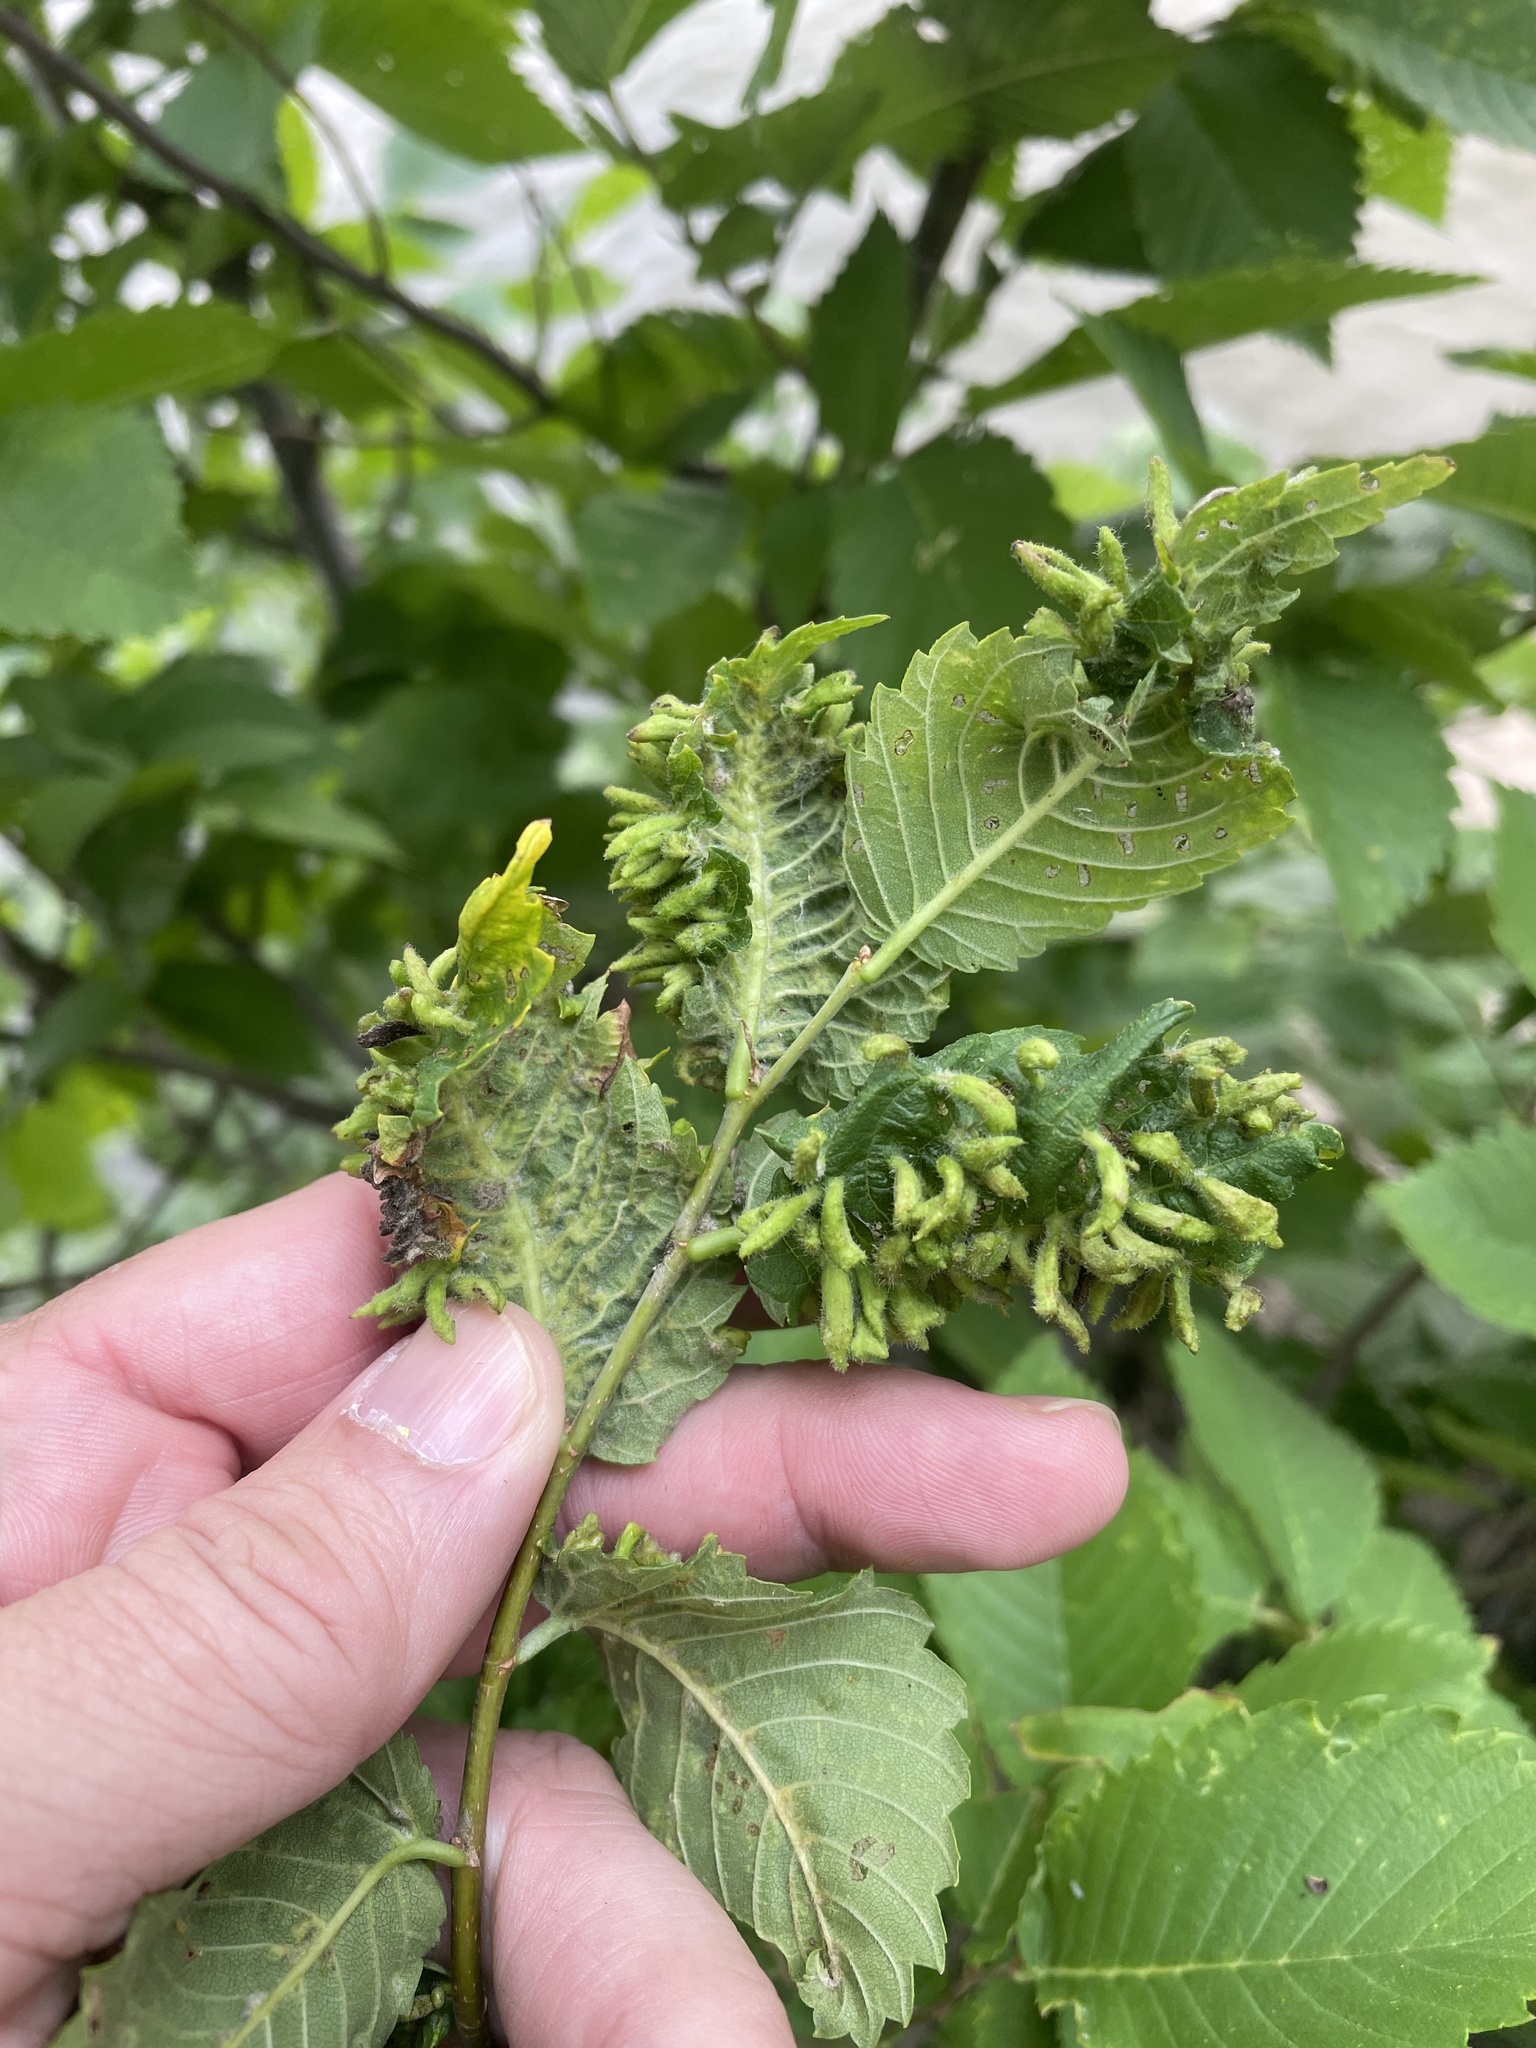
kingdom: Animalia
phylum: Arthropoda
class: Arachnida
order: Trombidiformes
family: Eriophyidae
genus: Aceria
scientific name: Aceria
